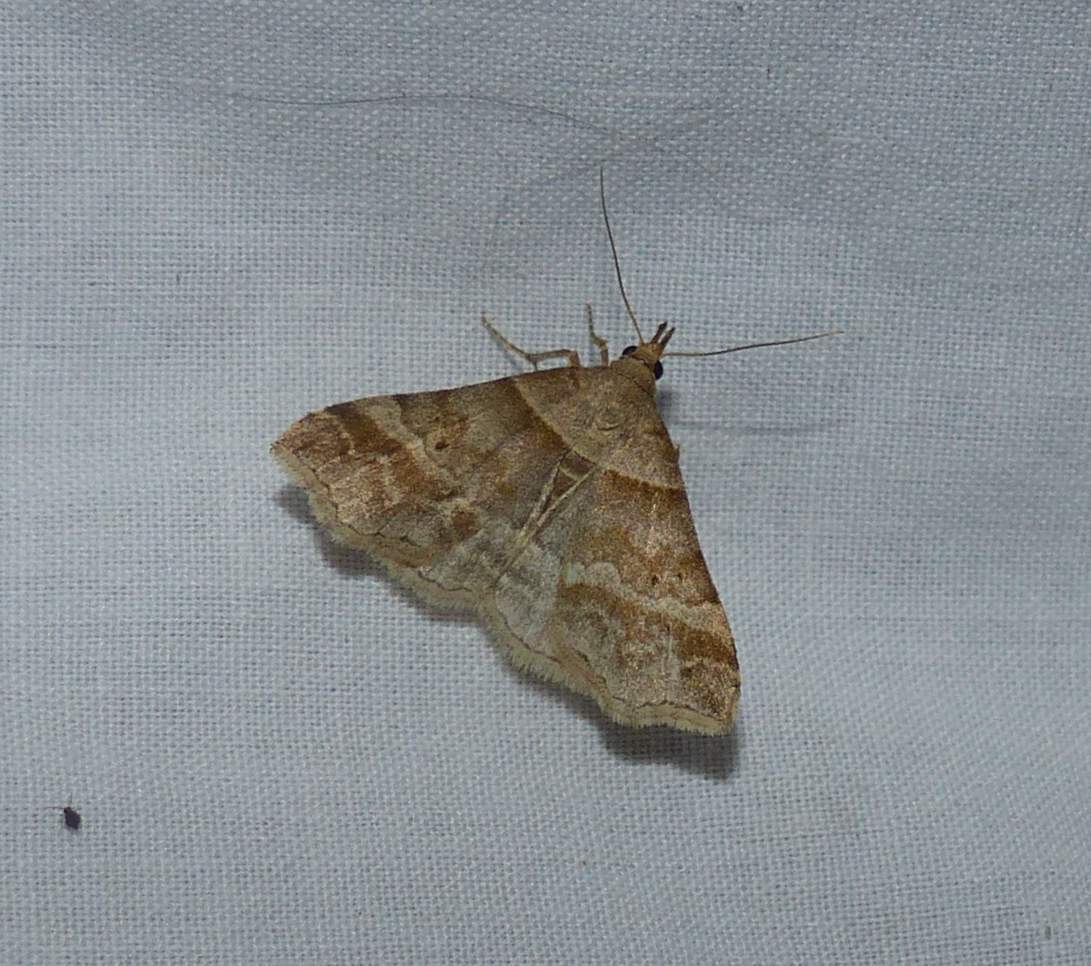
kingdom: Animalia
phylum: Arthropoda
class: Insecta
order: Lepidoptera
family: Erebidae
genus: Phaeolita
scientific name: Phaeolita pyramusalis
